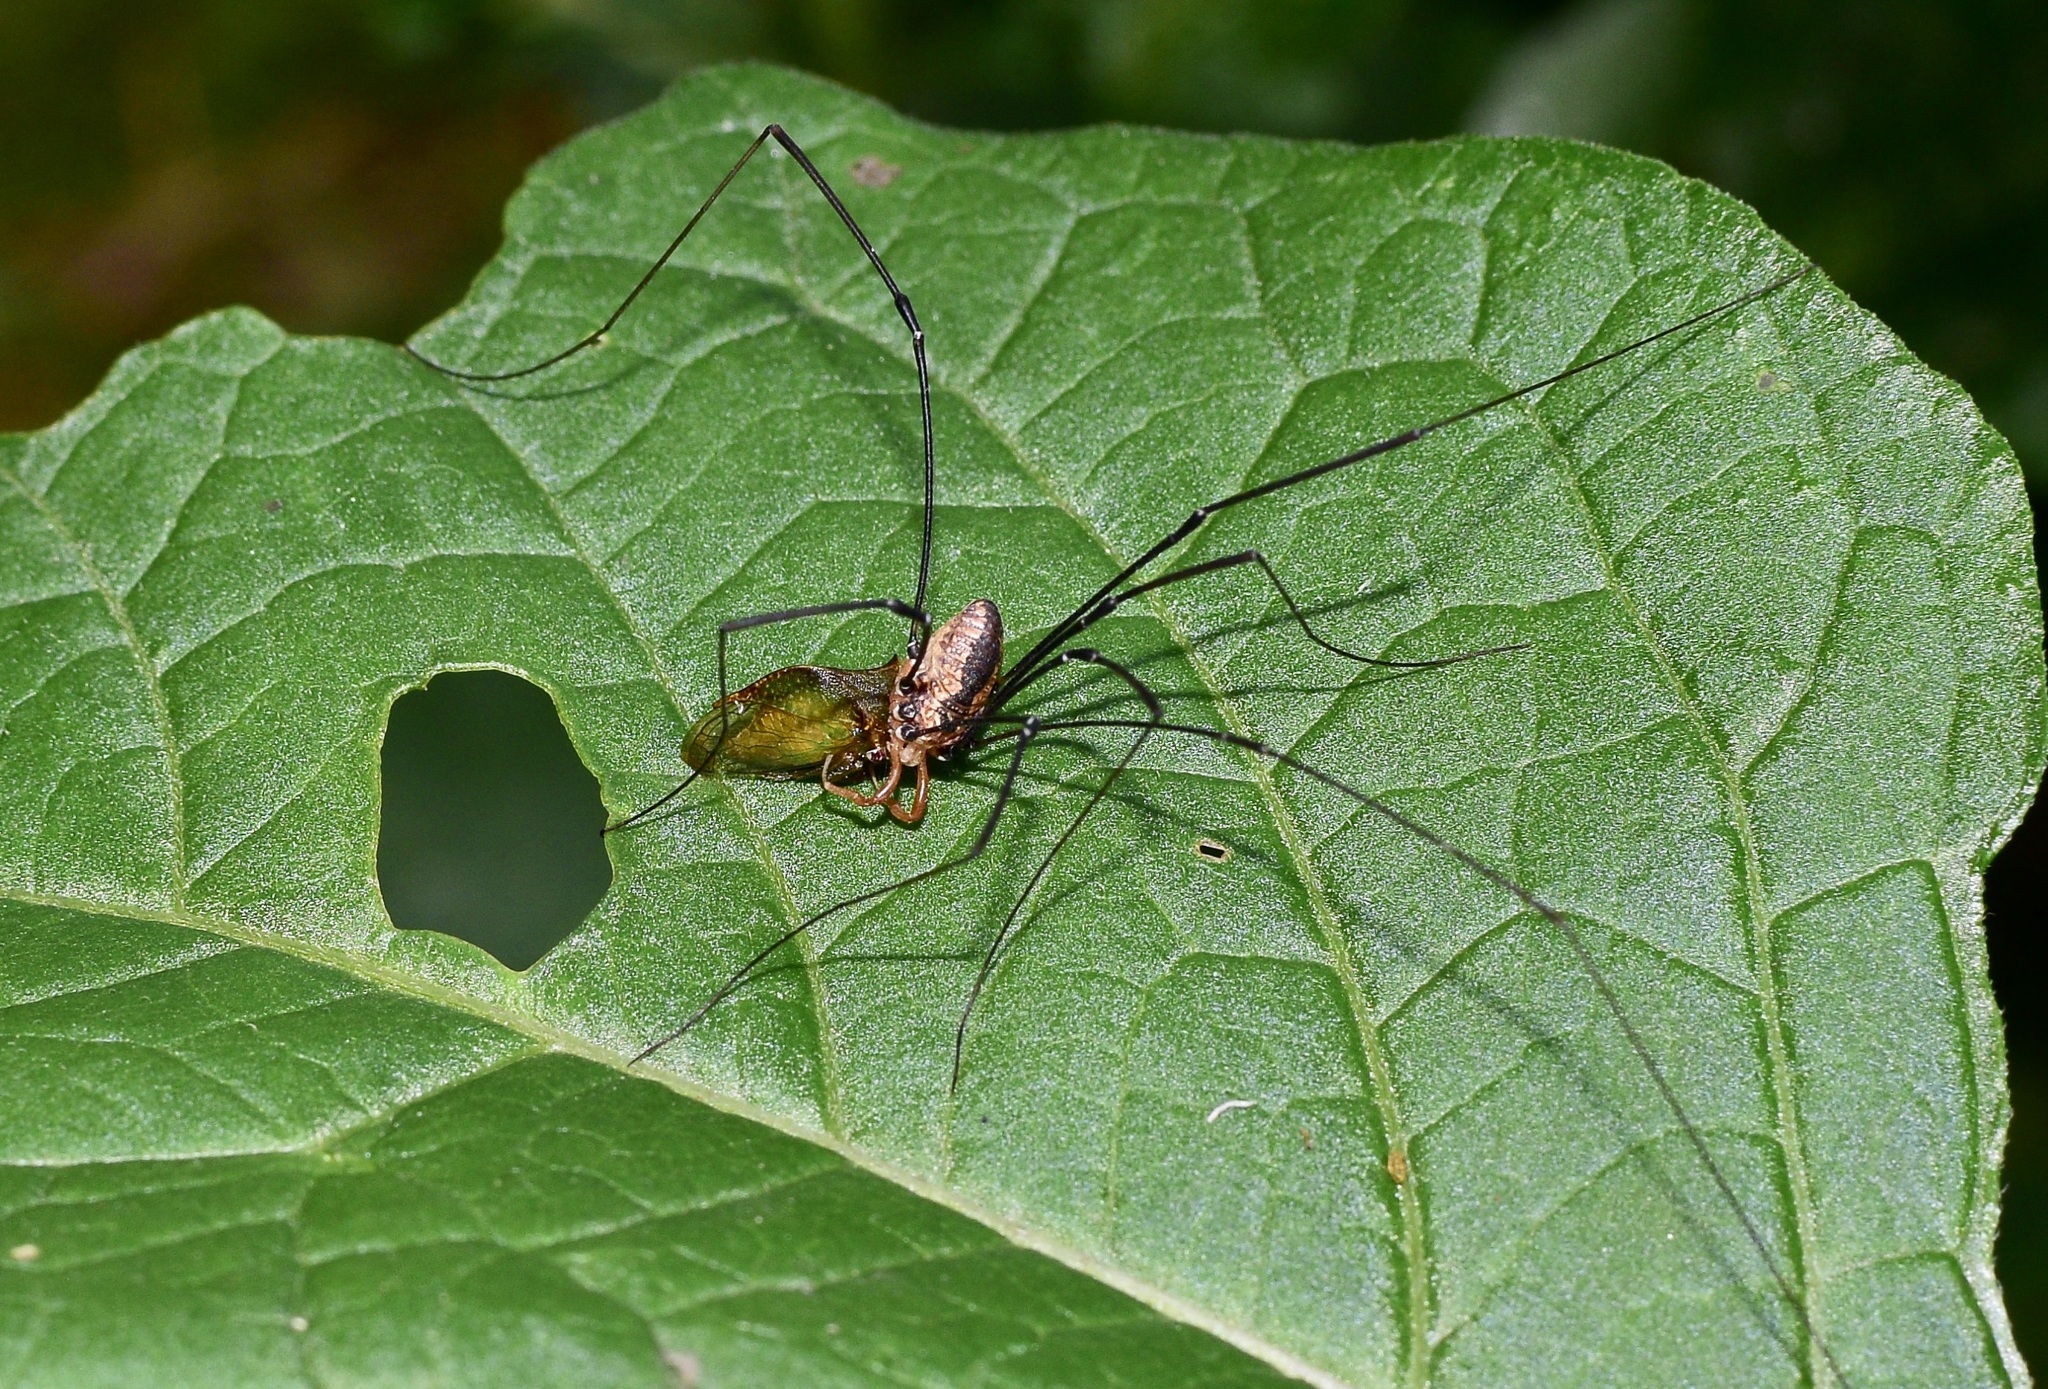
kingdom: Animalia
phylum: Arthropoda
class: Arachnida
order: Opiliones
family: Sclerosomatidae
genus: Leiobunum
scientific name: Leiobunum vittatum
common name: Eastern harvestman
